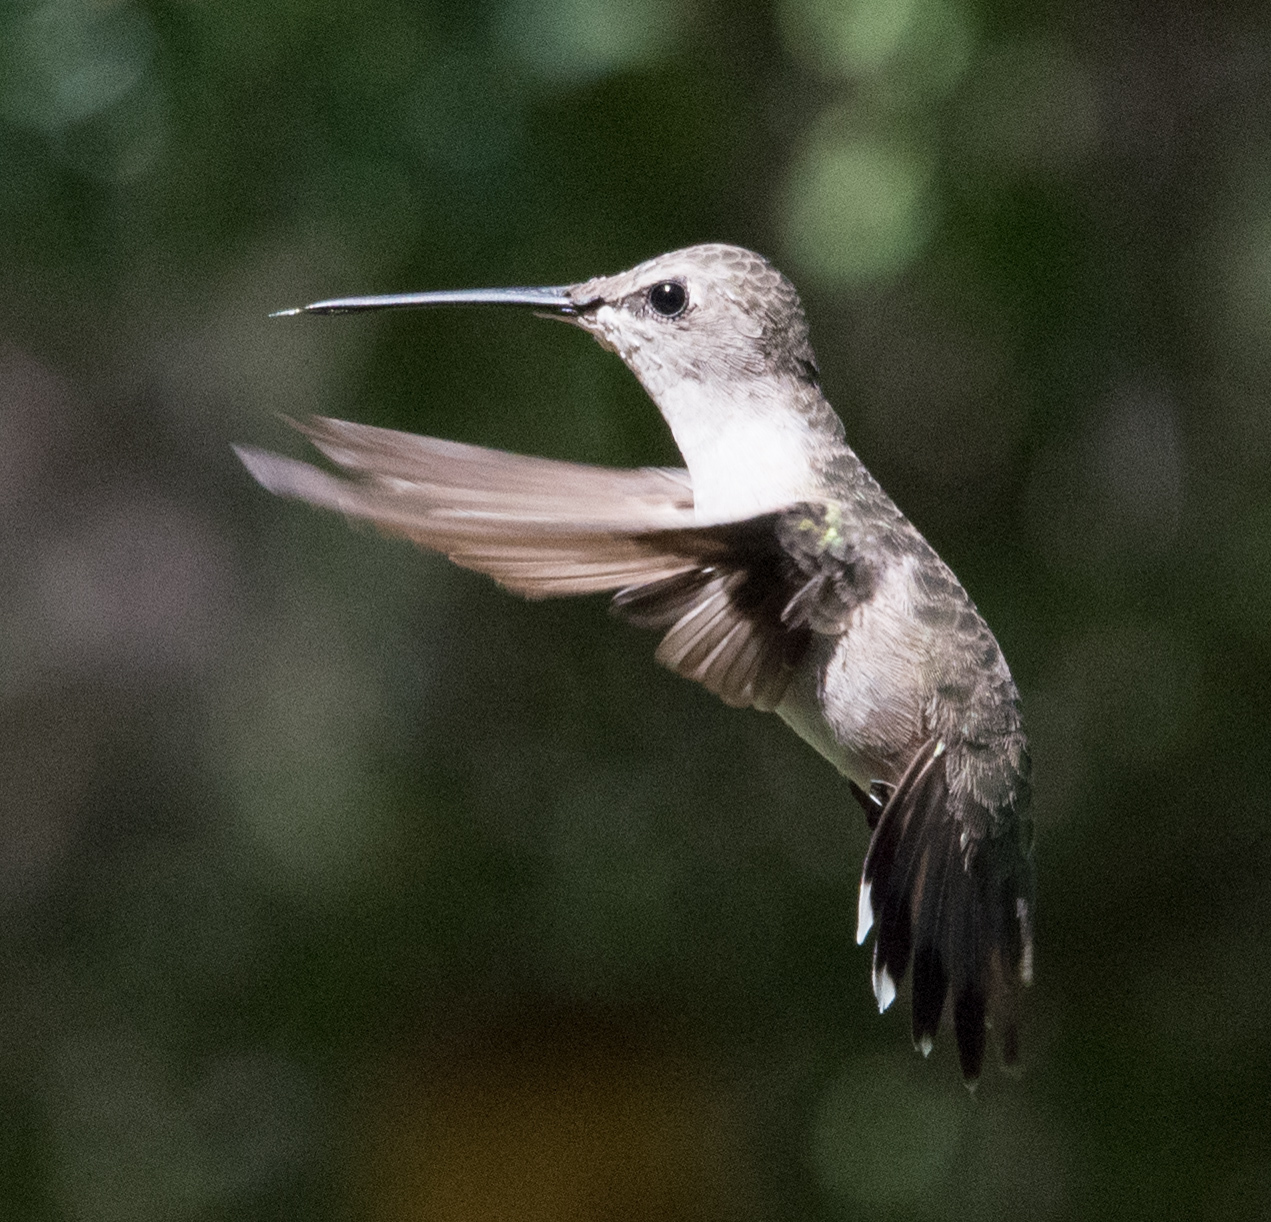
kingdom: Animalia
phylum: Chordata
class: Aves
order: Apodiformes
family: Trochilidae
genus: Archilochus
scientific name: Archilochus alexandri
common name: Black-chinned hummingbird
